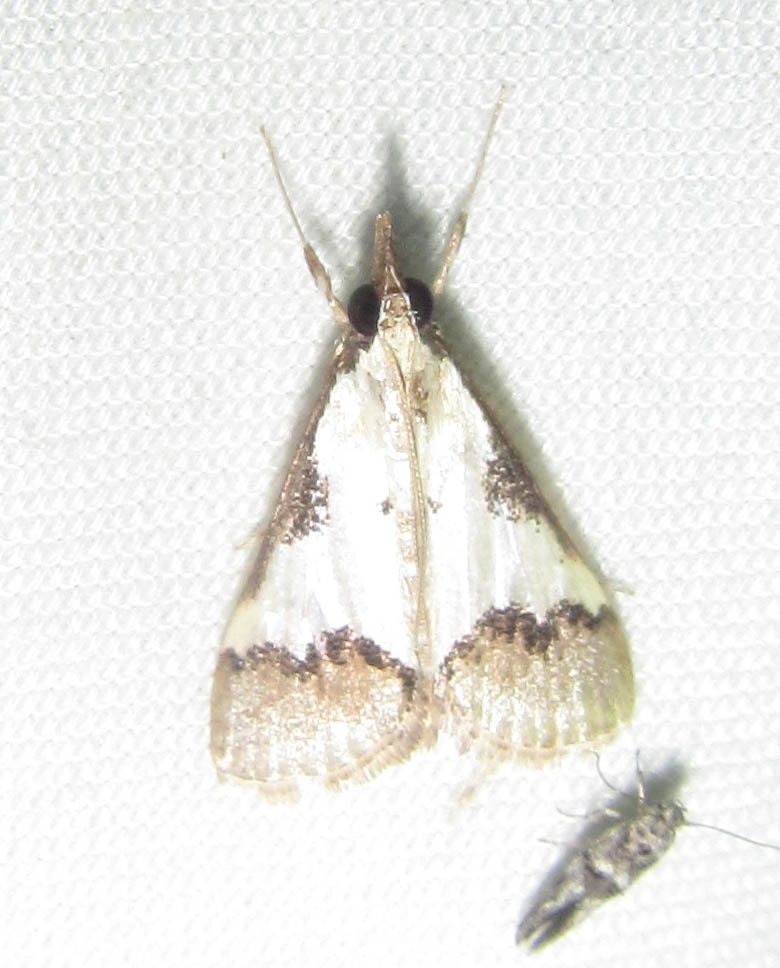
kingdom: Animalia
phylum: Arthropoda
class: Insecta
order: Lepidoptera
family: Crambidae
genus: Autocharis
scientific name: Autocharis jacobsalis
